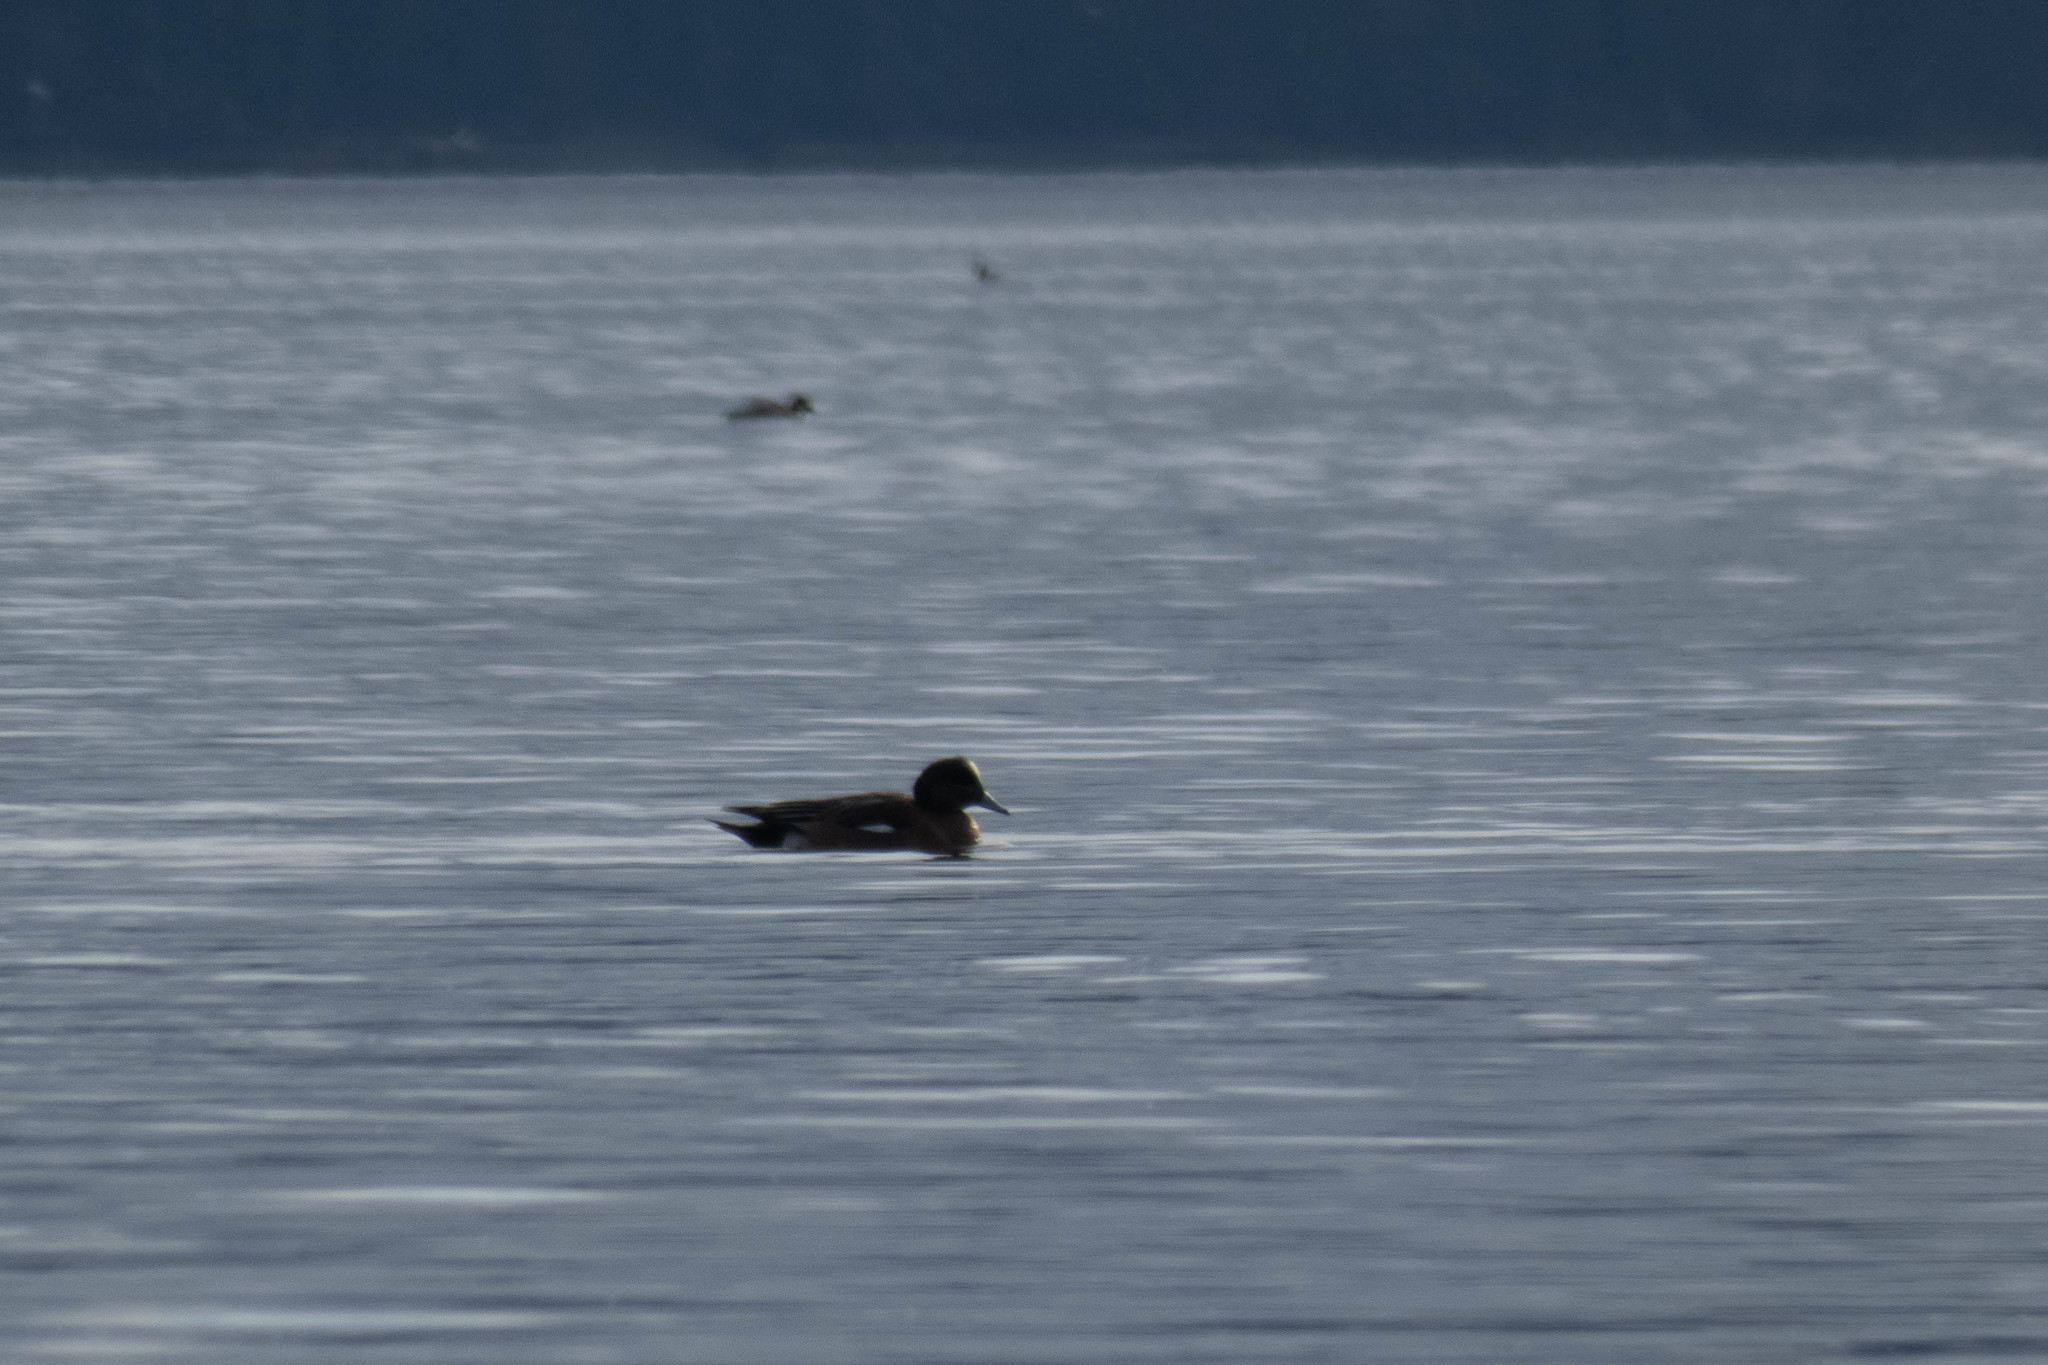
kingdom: Animalia
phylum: Chordata
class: Aves
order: Anseriformes
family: Anatidae
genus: Mareca
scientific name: Mareca americana
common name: American wigeon
